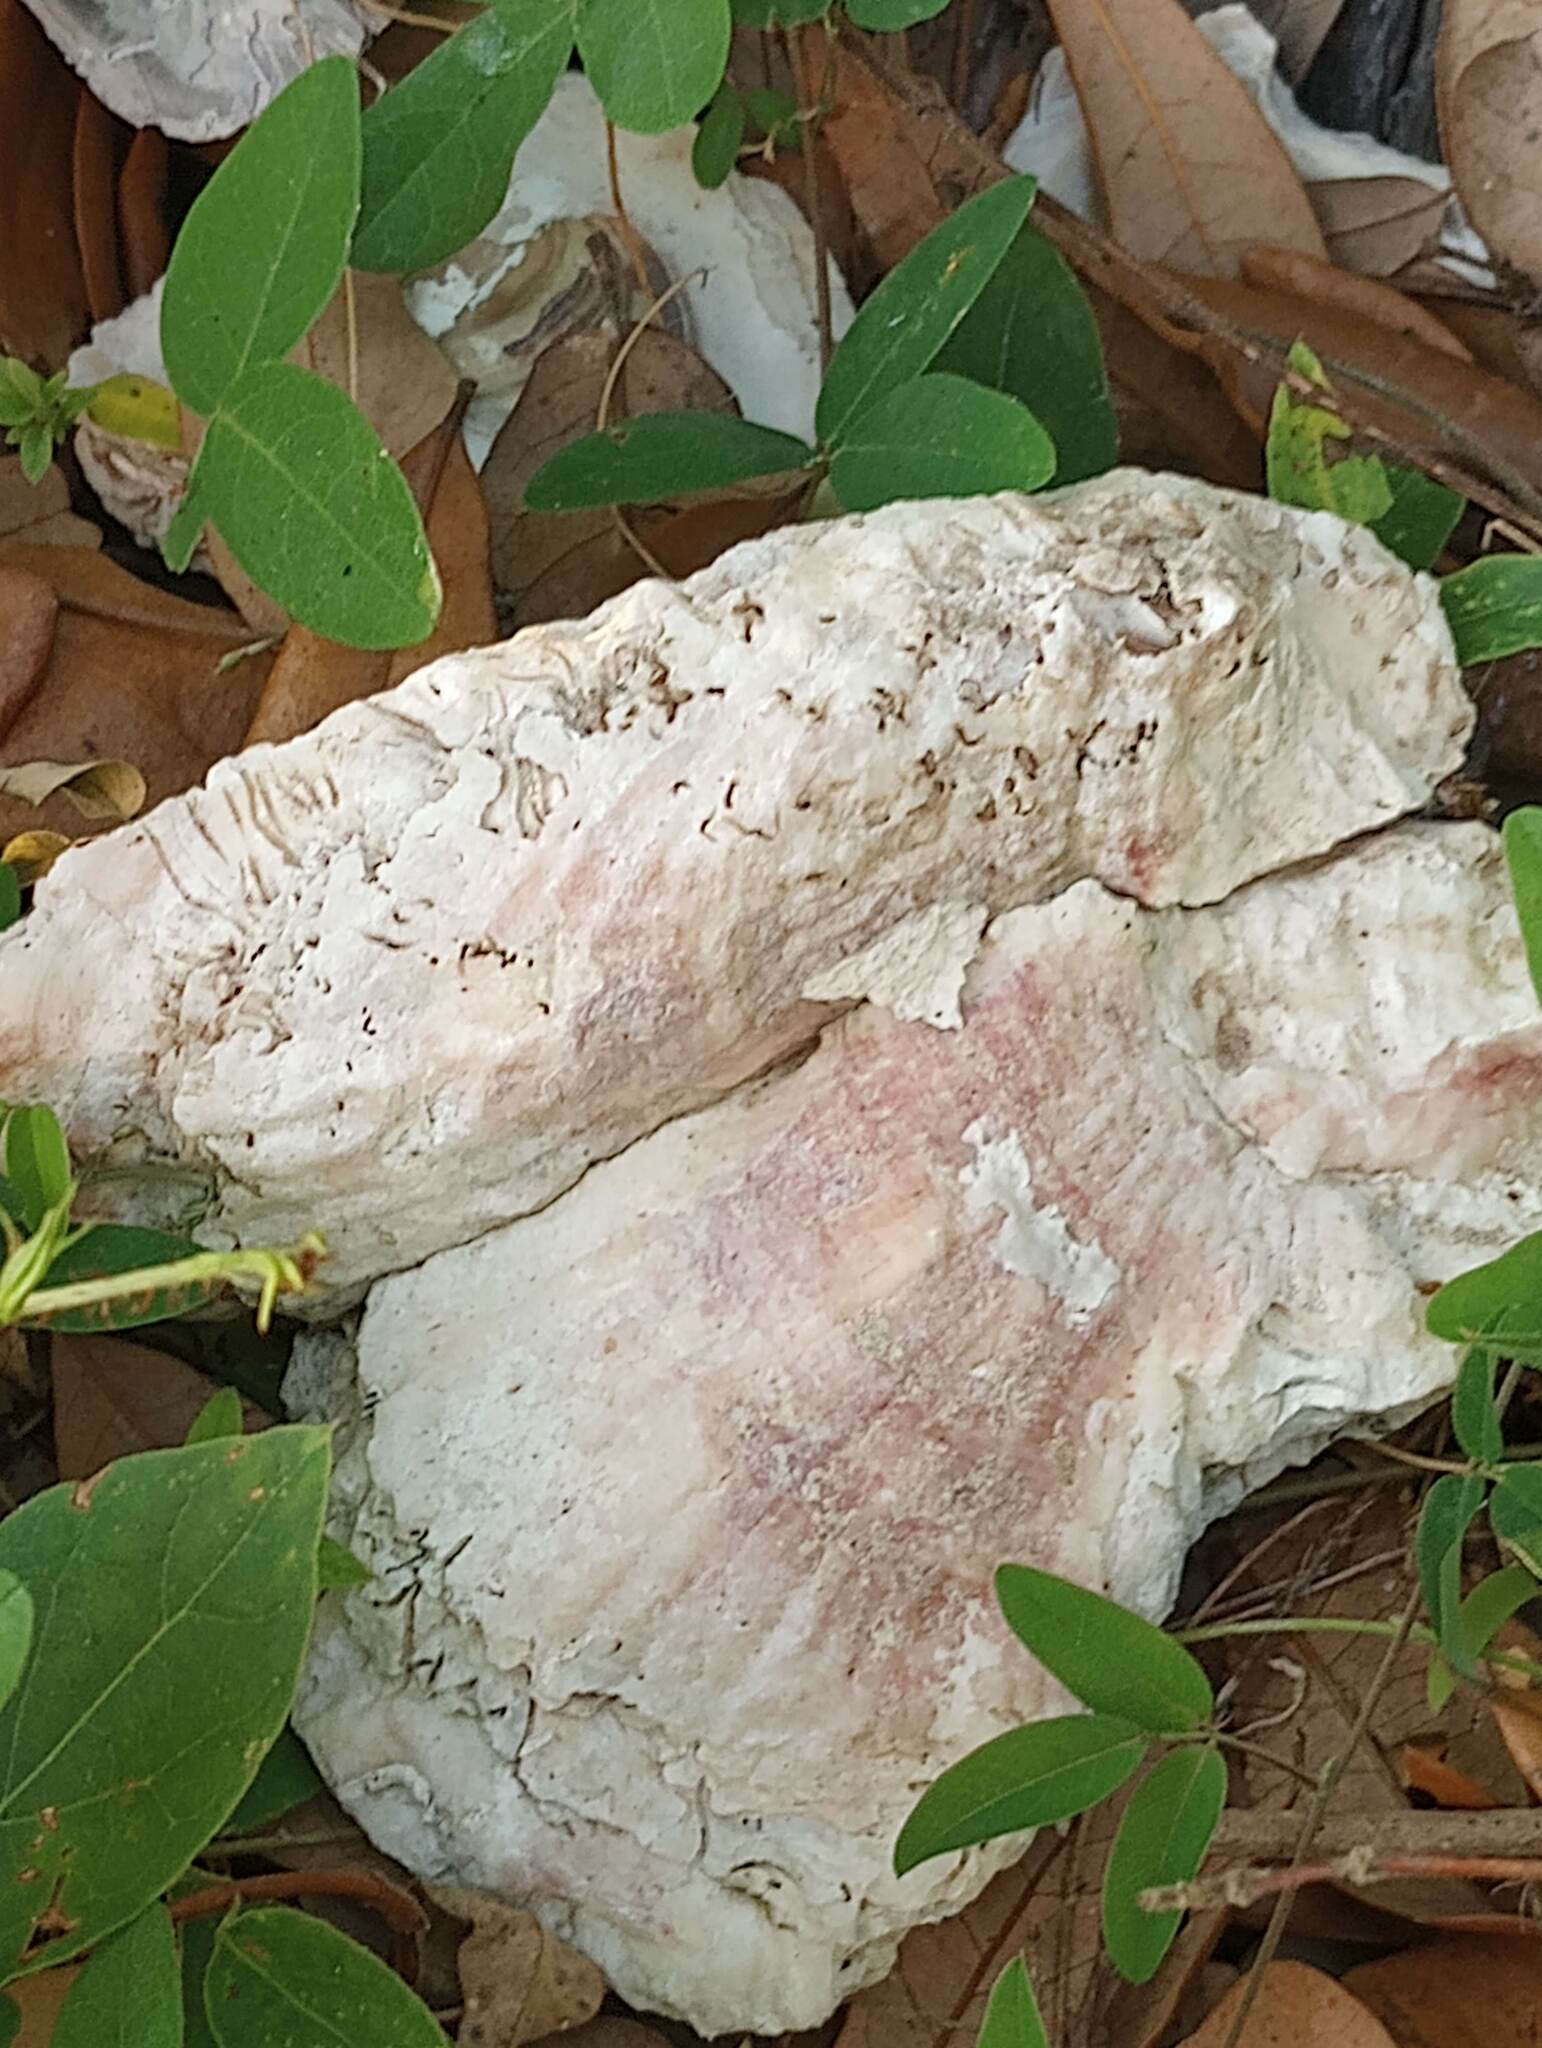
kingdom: Animalia
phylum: Mollusca
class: Bivalvia
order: Ostreida
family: Ostreidae
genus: Crassostrea
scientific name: Crassostrea virginica
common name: American oyster
